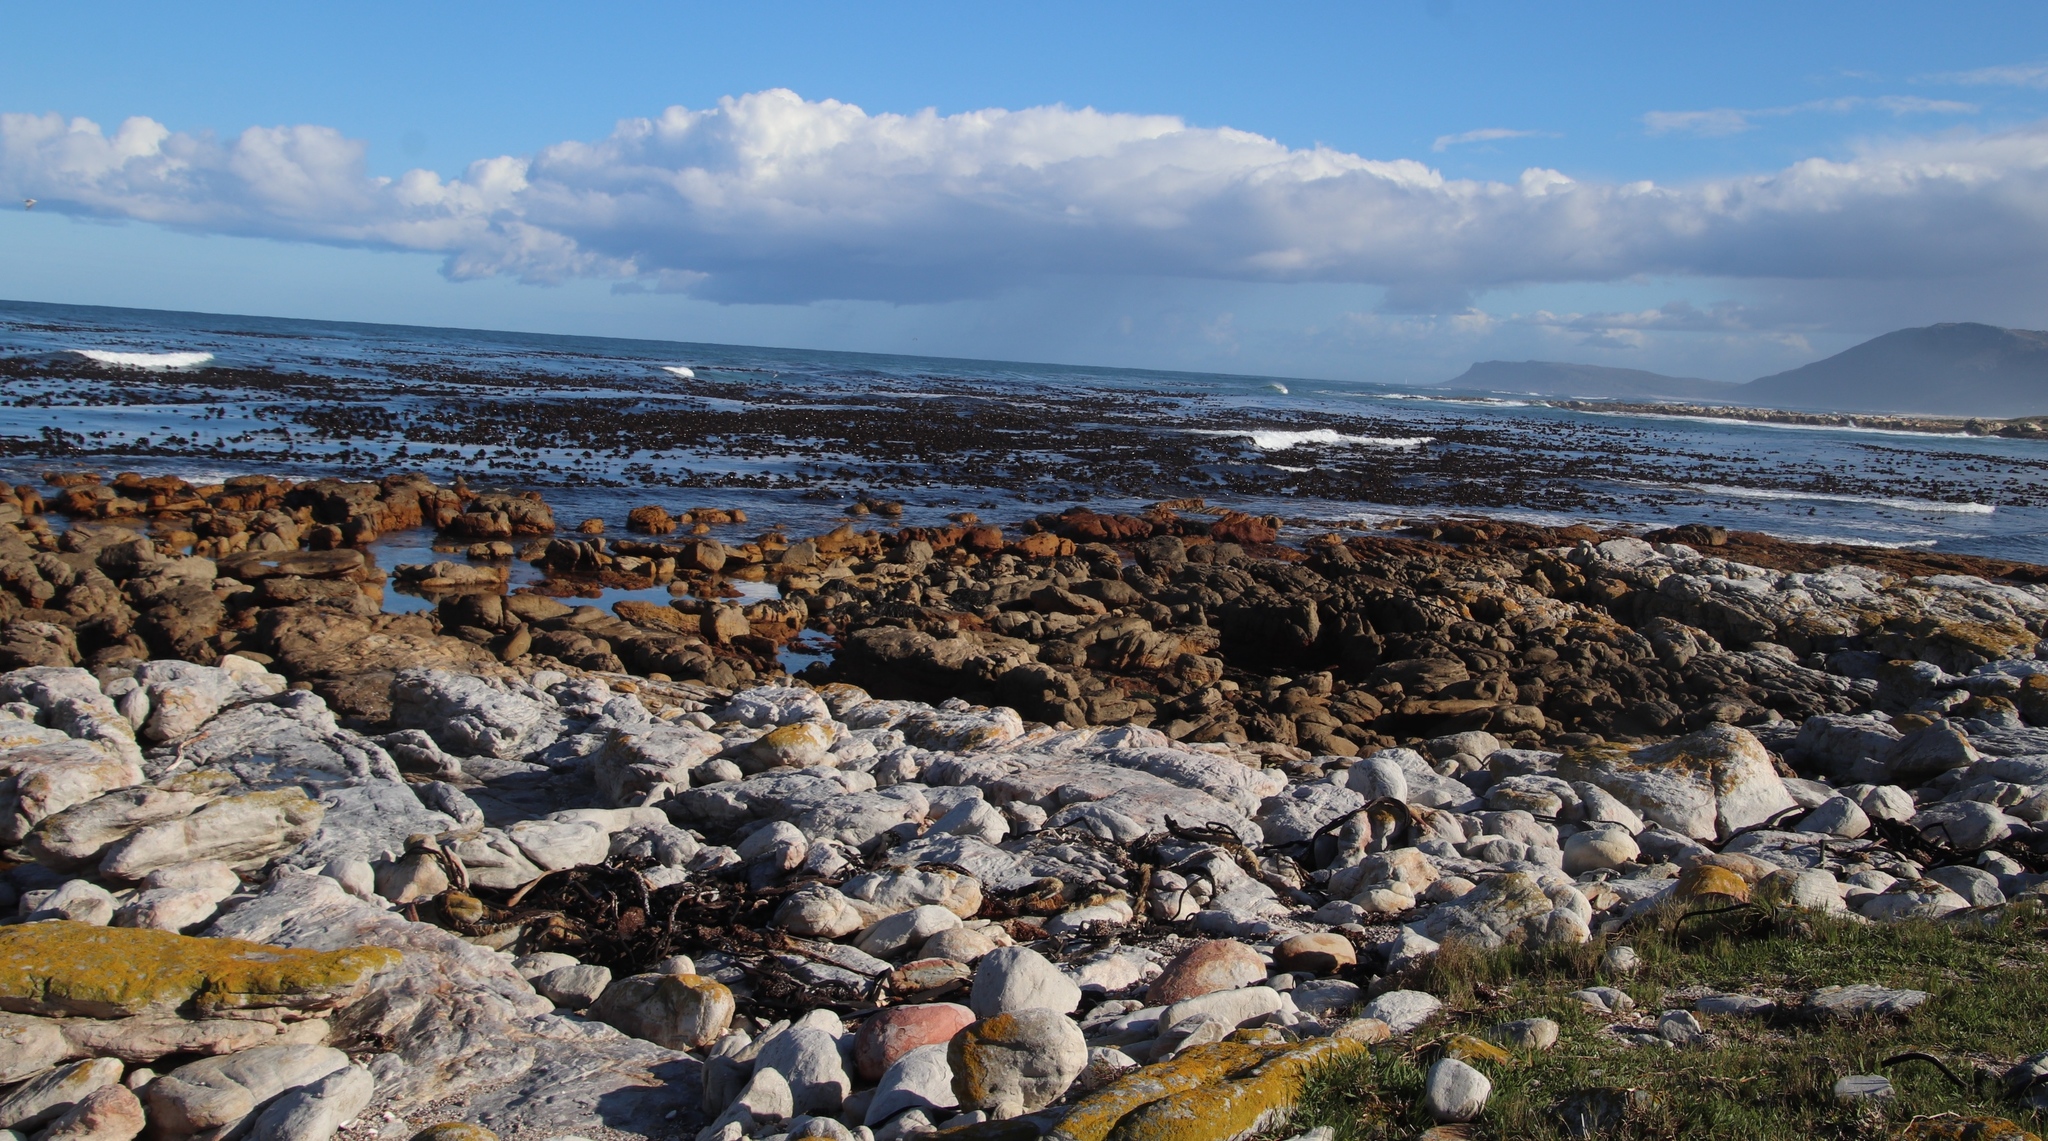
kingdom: Chromista
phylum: Ochrophyta
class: Phaeophyceae
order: Laminariales
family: Lessoniaceae
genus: Ecklonia
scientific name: Ecklonia
